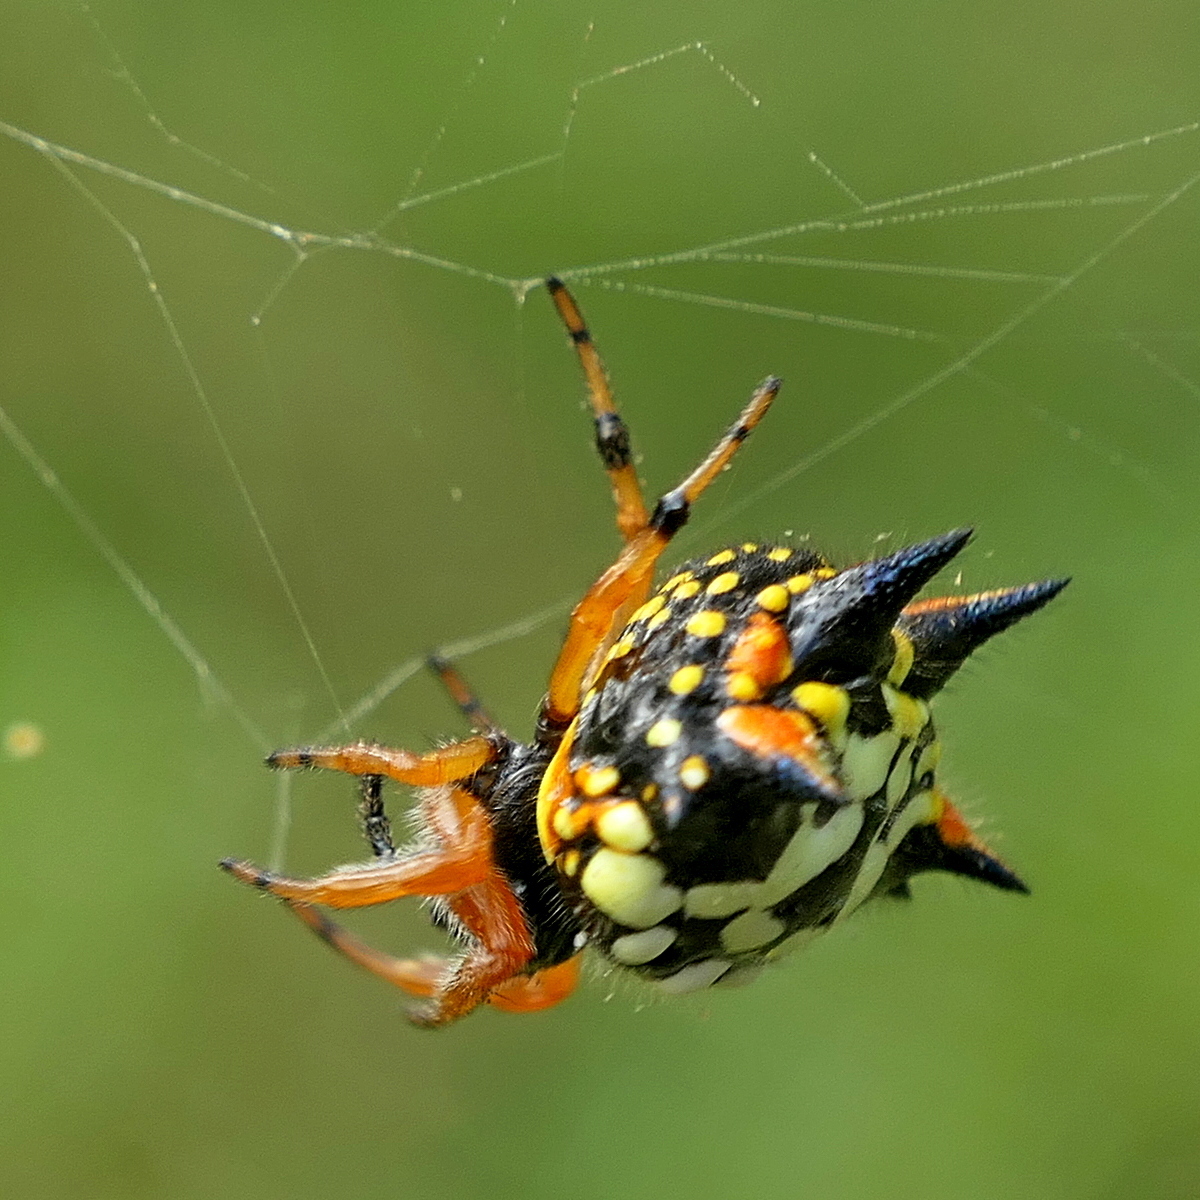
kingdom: Animalia
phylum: Arthropoda
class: Arachnida
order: Araneae
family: Araneidae
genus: Austracantha
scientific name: Austracantha minax
